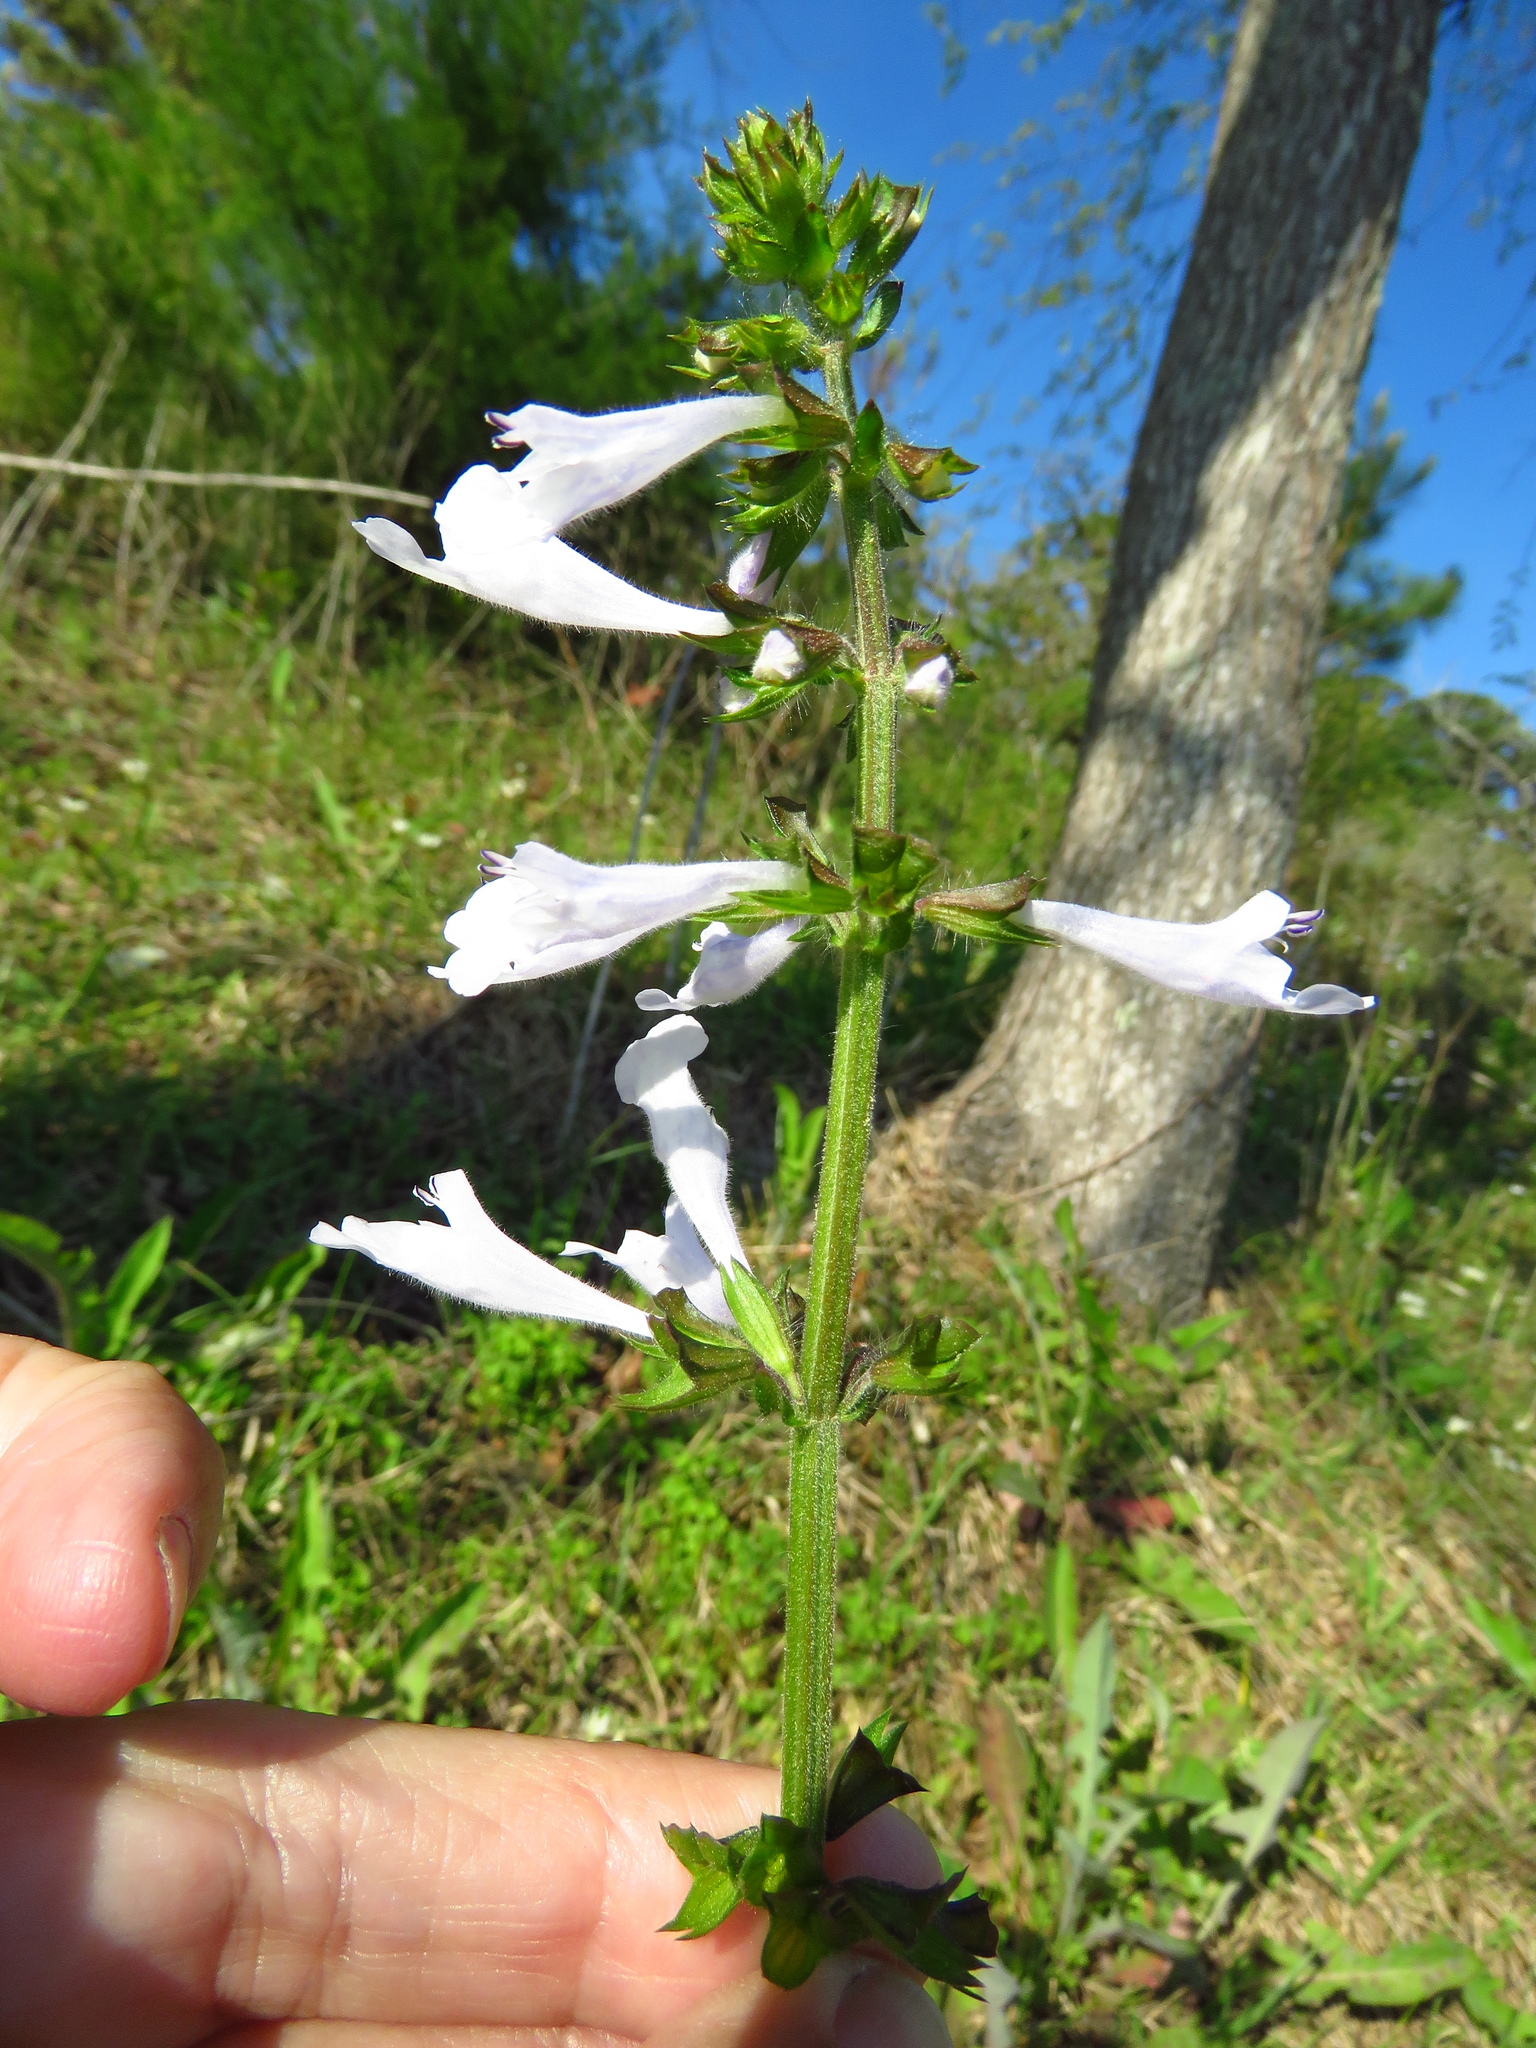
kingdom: Plantae
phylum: Tracheophyta
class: Magnoliopsida
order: Lamiales
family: Lamiaceae
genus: Salvia
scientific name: Salvia lyrata
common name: Cancerweed
